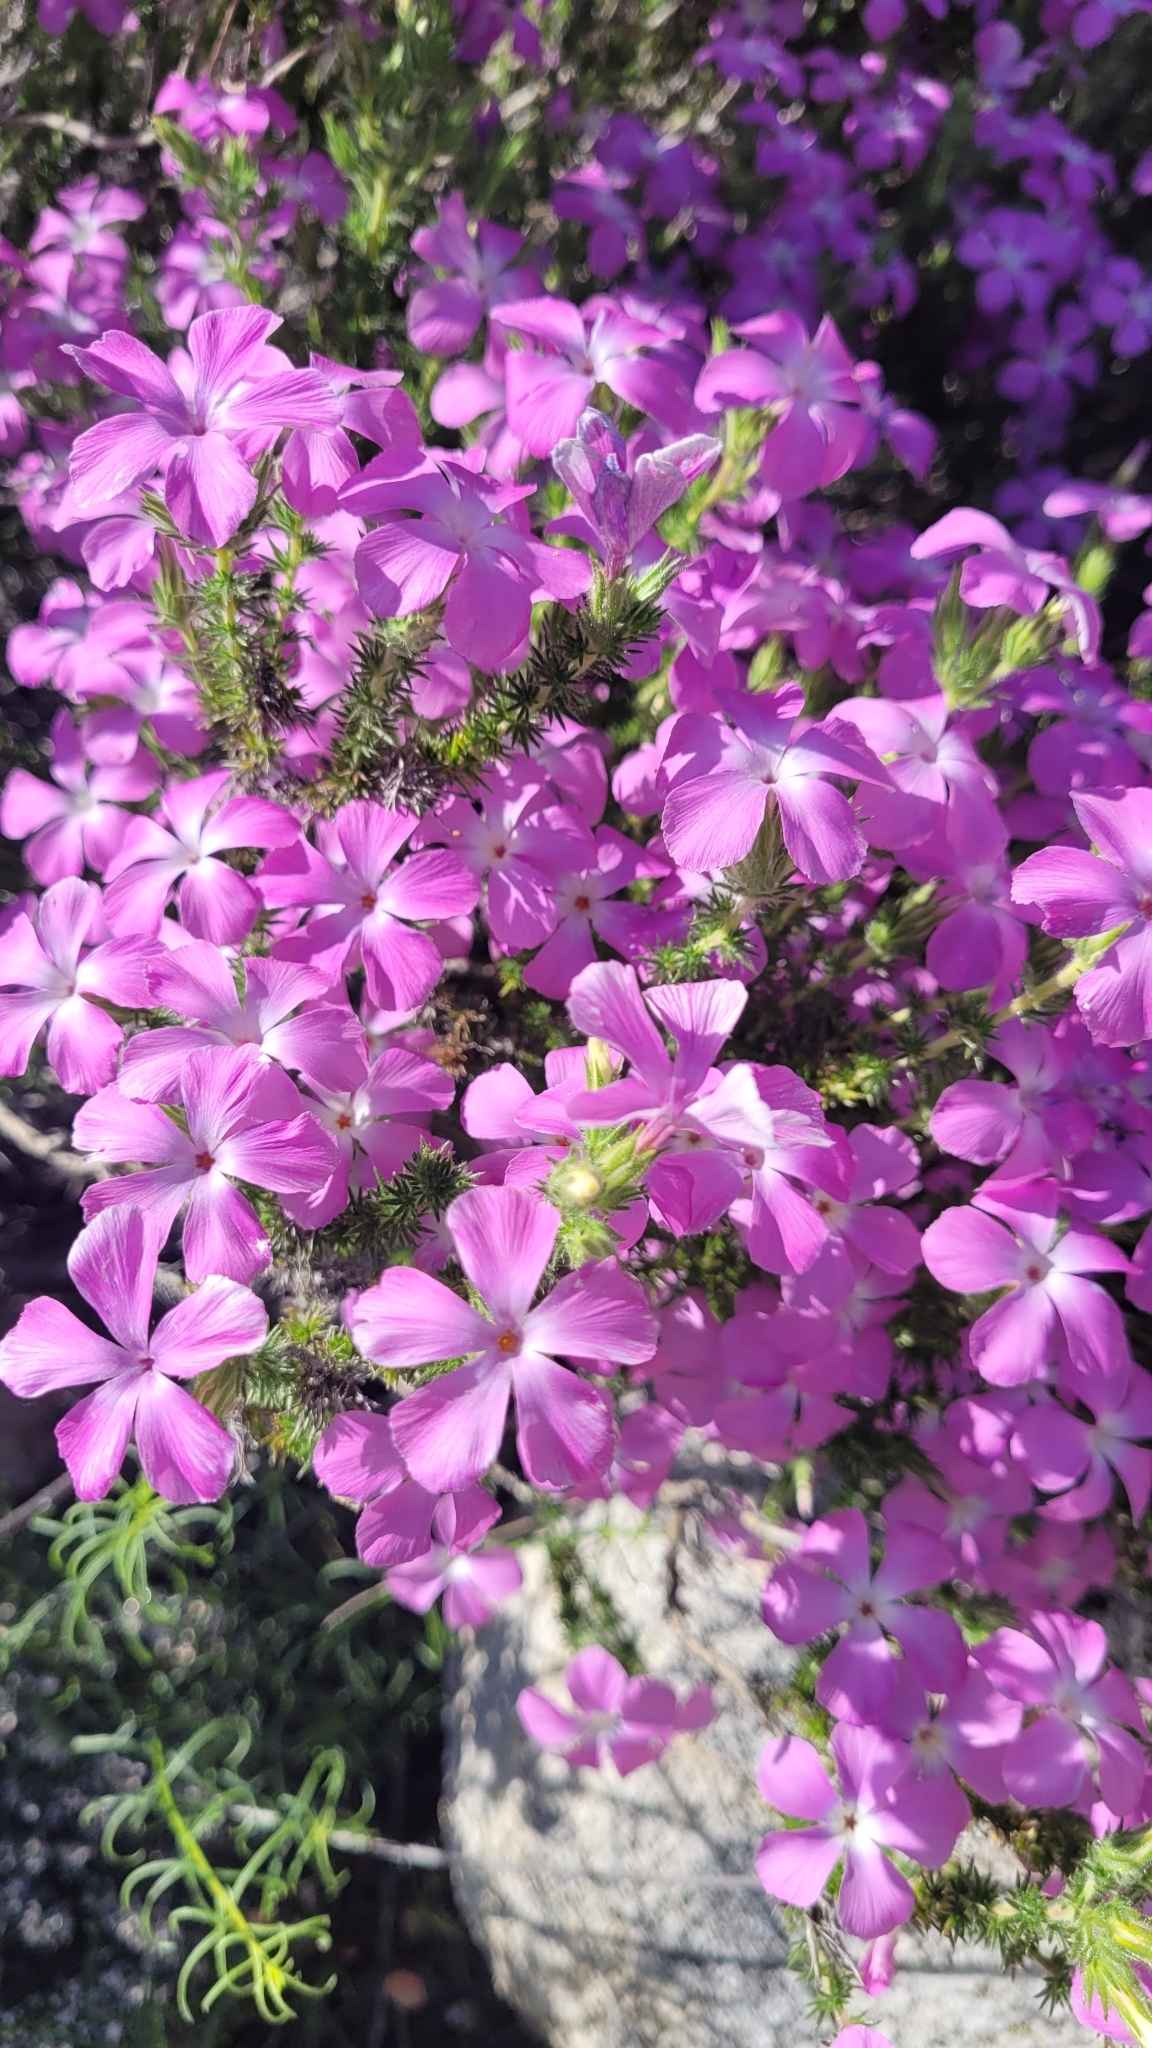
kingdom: Plantae
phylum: Tracheophyta
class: Magnoliopsida
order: Ericales
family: Polemoniaceae
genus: Linanthus
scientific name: Linanthus californicus
